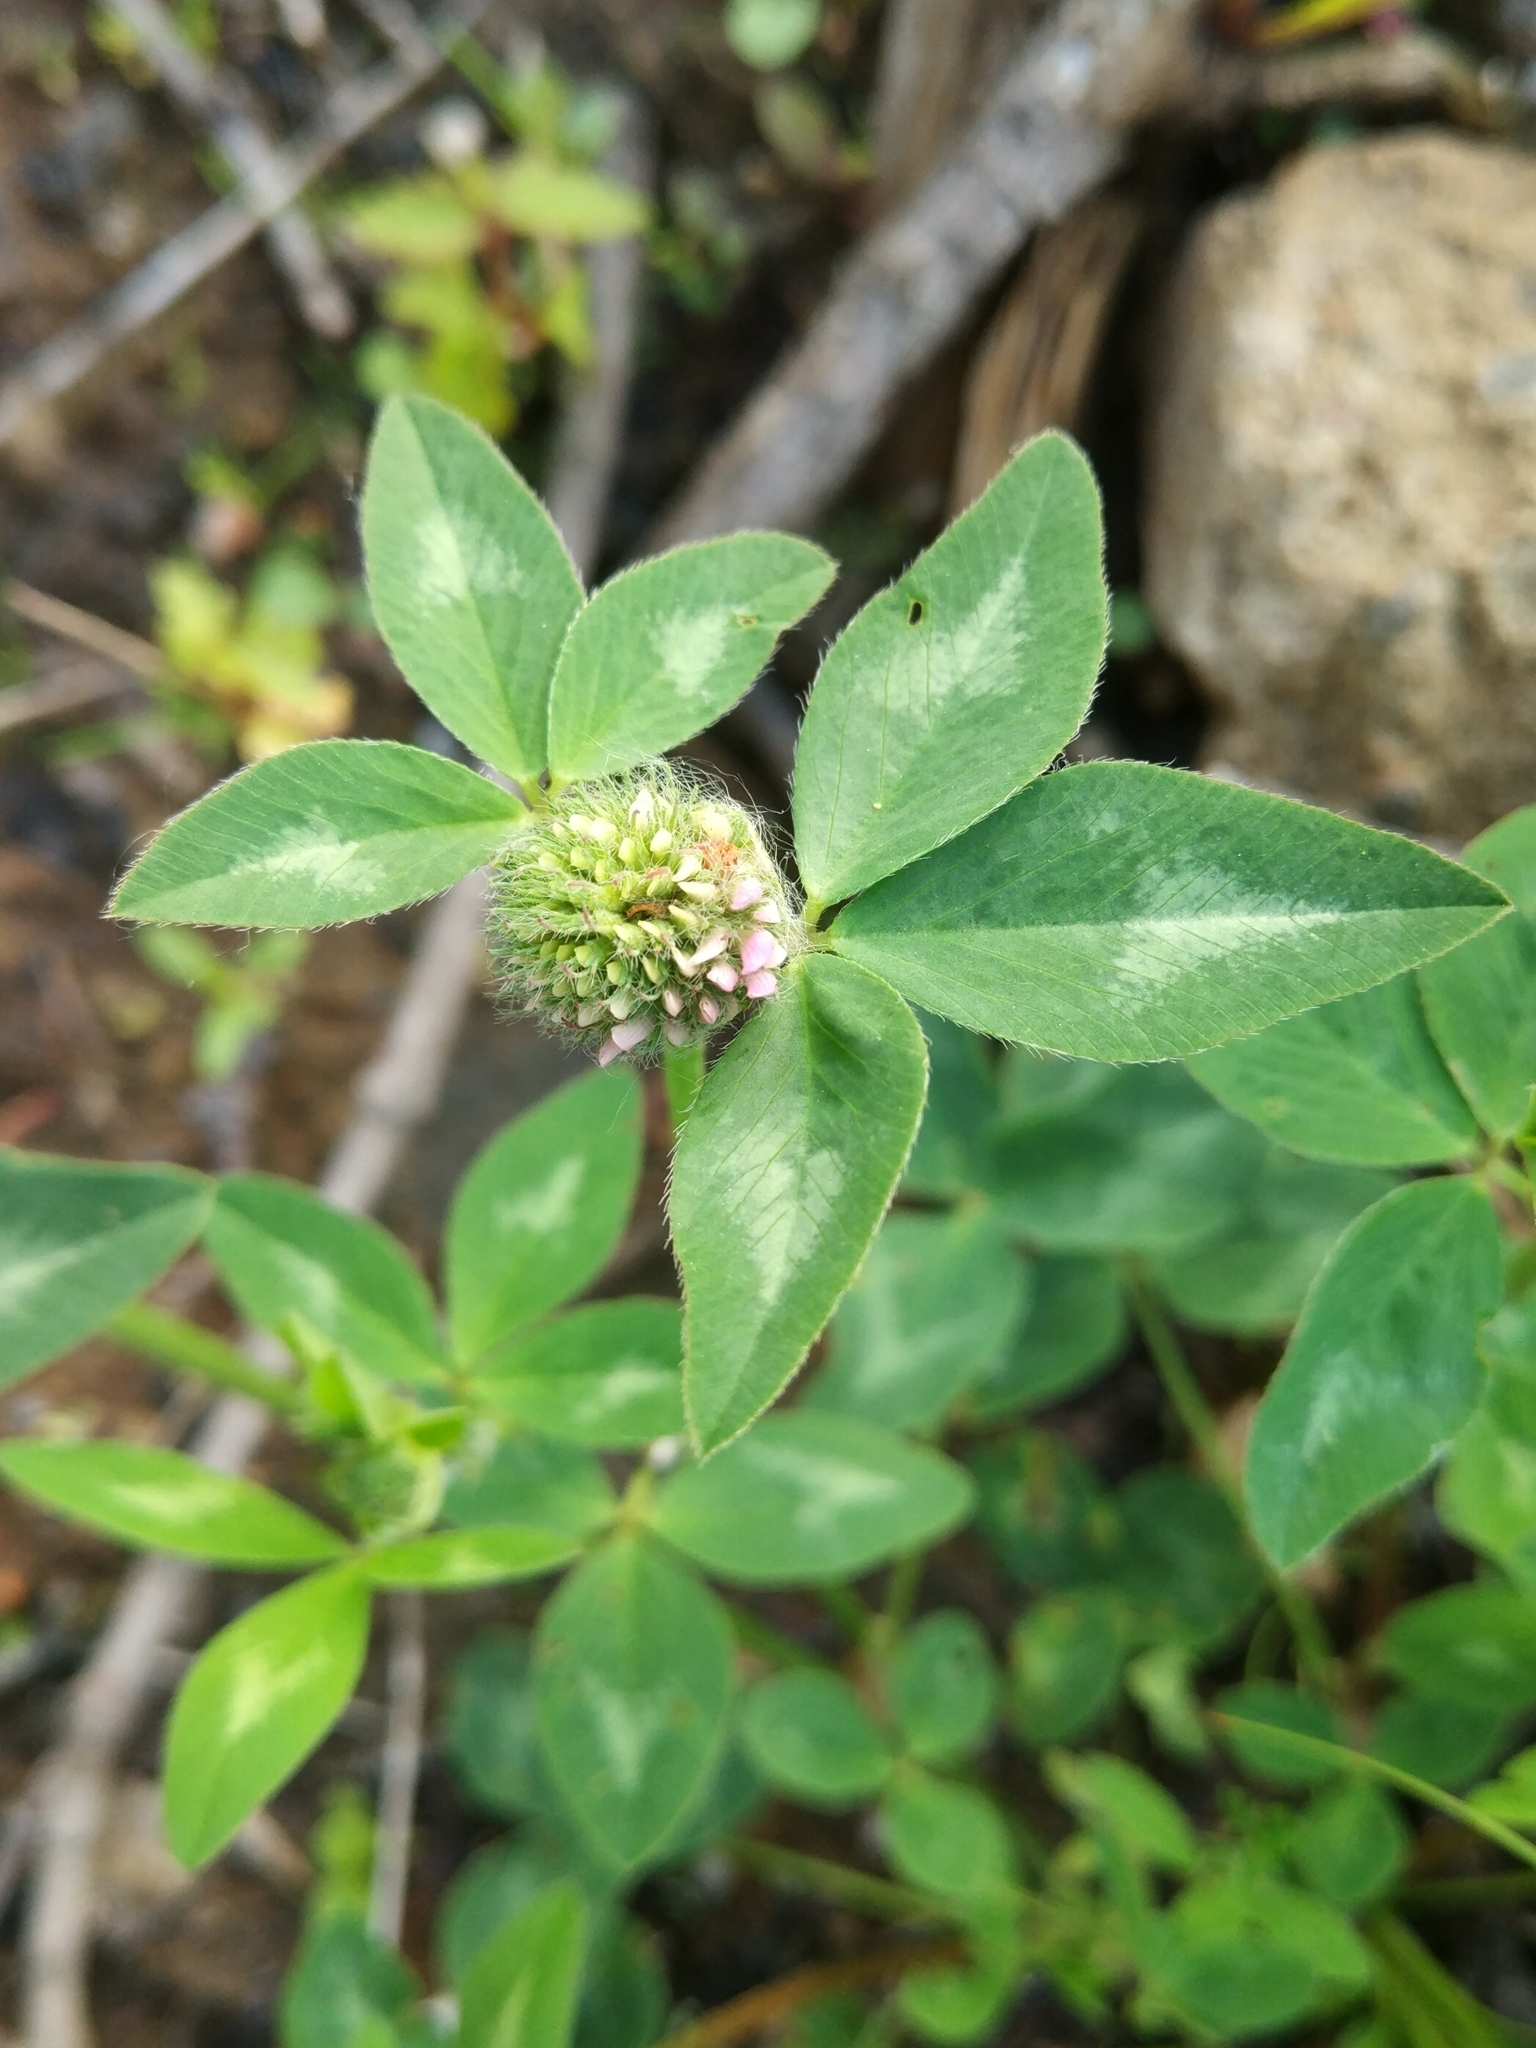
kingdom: Plantae
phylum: Tracheophyta
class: Magnoliopsida
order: Fabales
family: Fabaceae
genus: Trifolium
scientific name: Trifolium pratense
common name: Red clover
